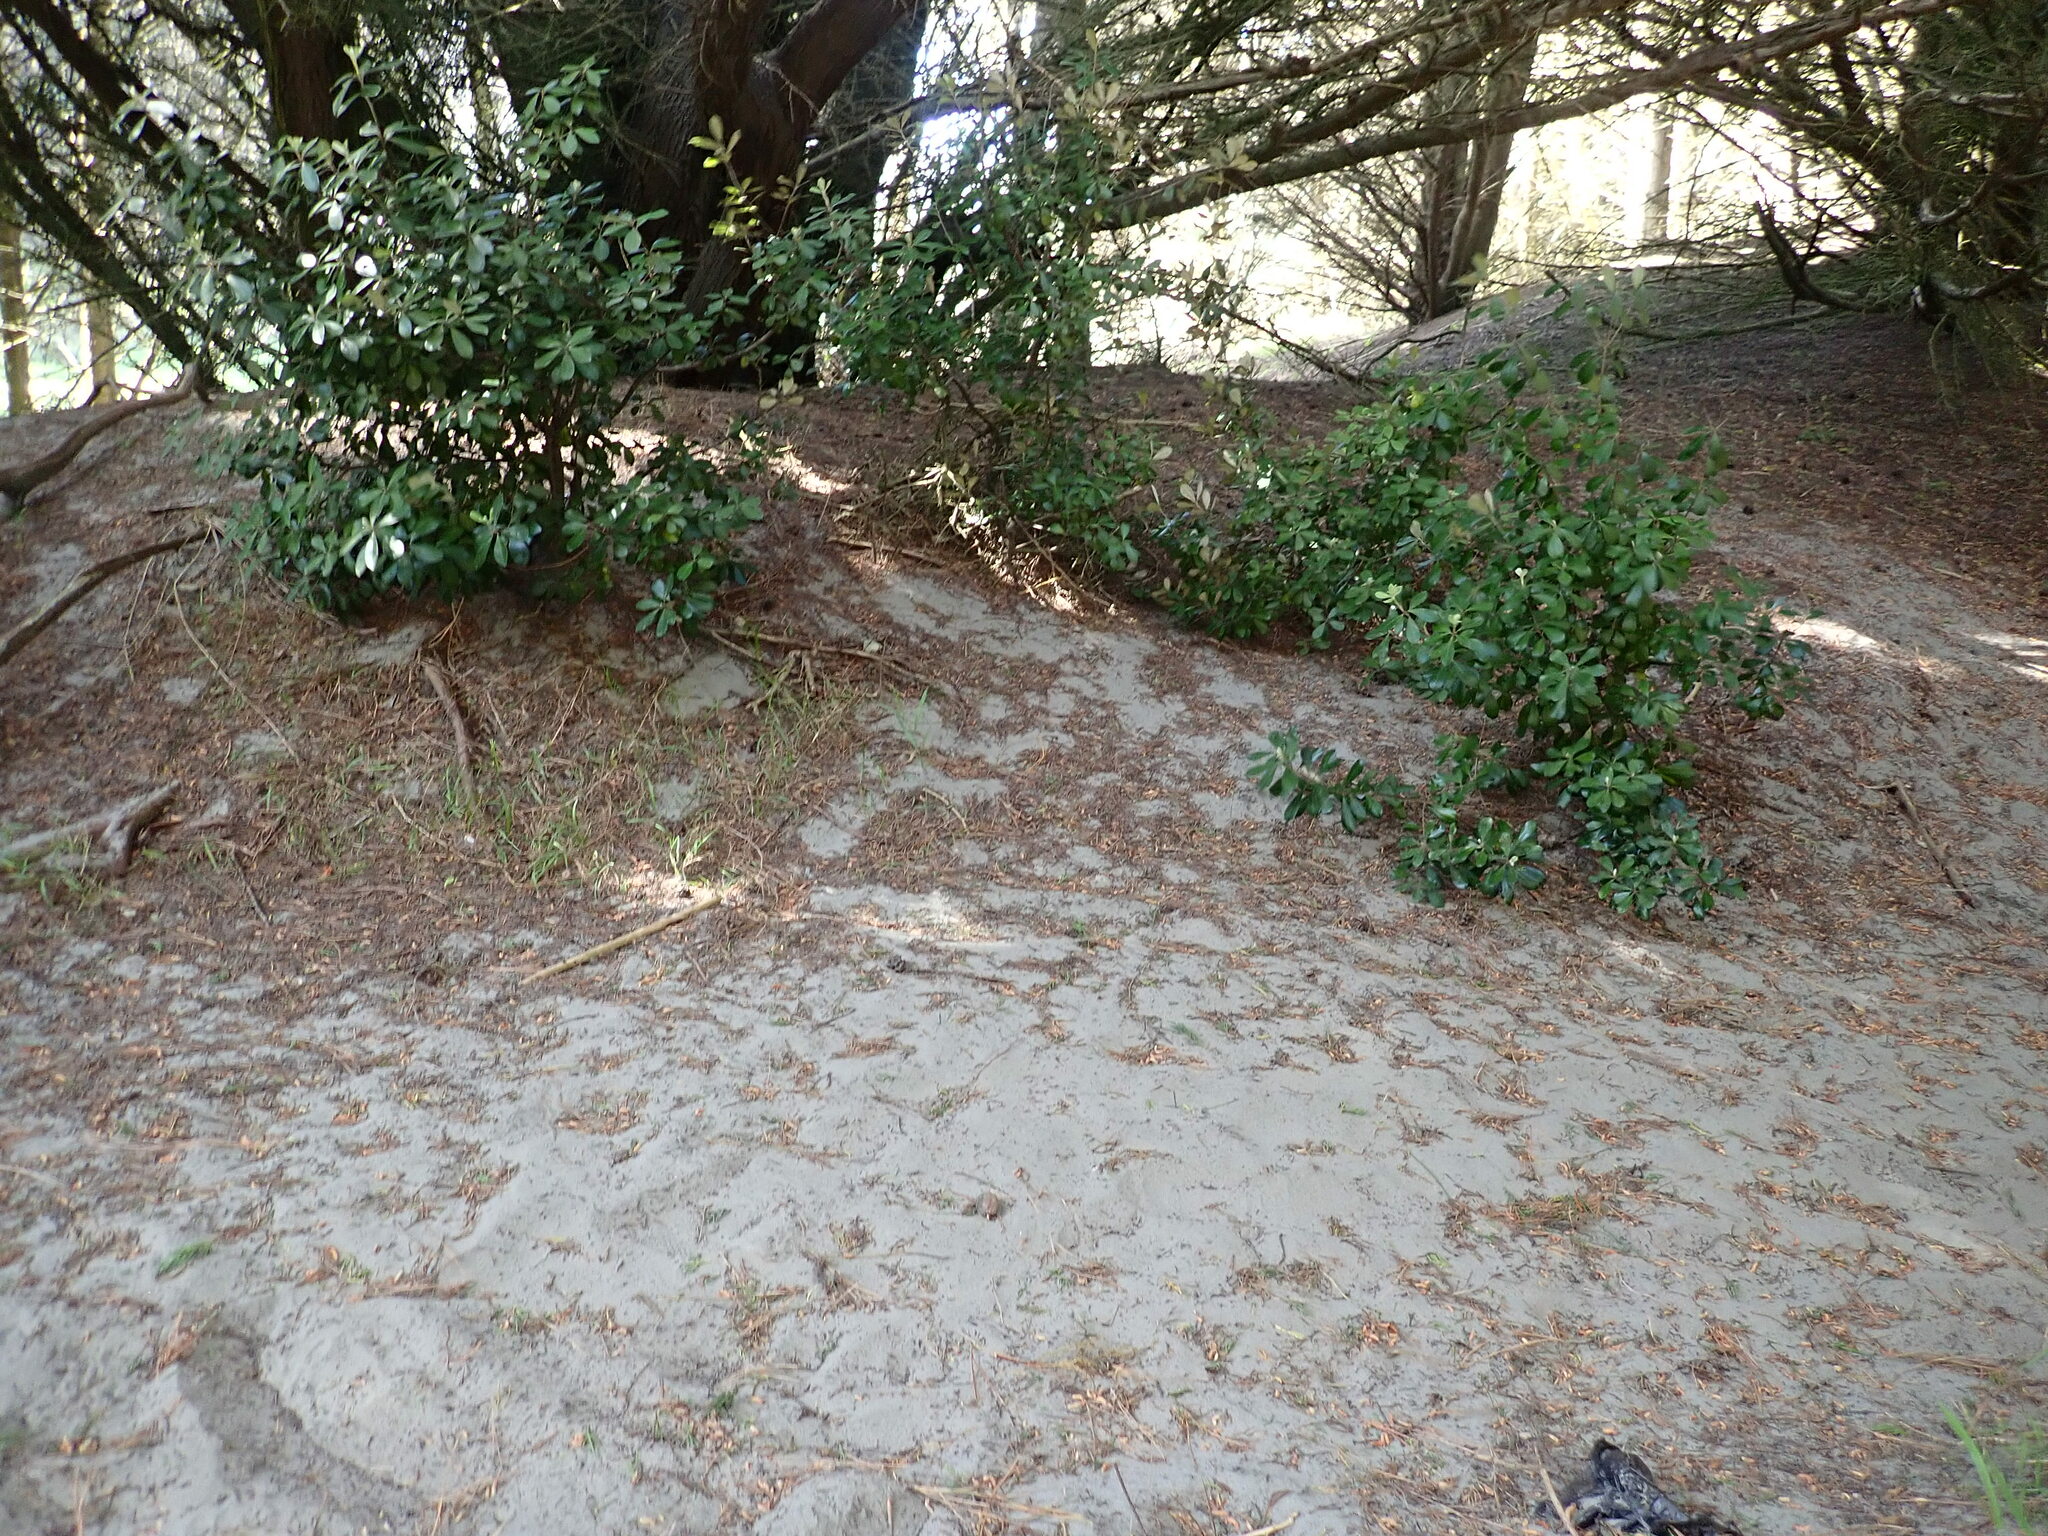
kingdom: Plantae
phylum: Tracheophyta
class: Magnoliopsida
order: Apiales
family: Pittosporaceae
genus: Pittosporum
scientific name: Pittosporum crassifolium
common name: Karo
